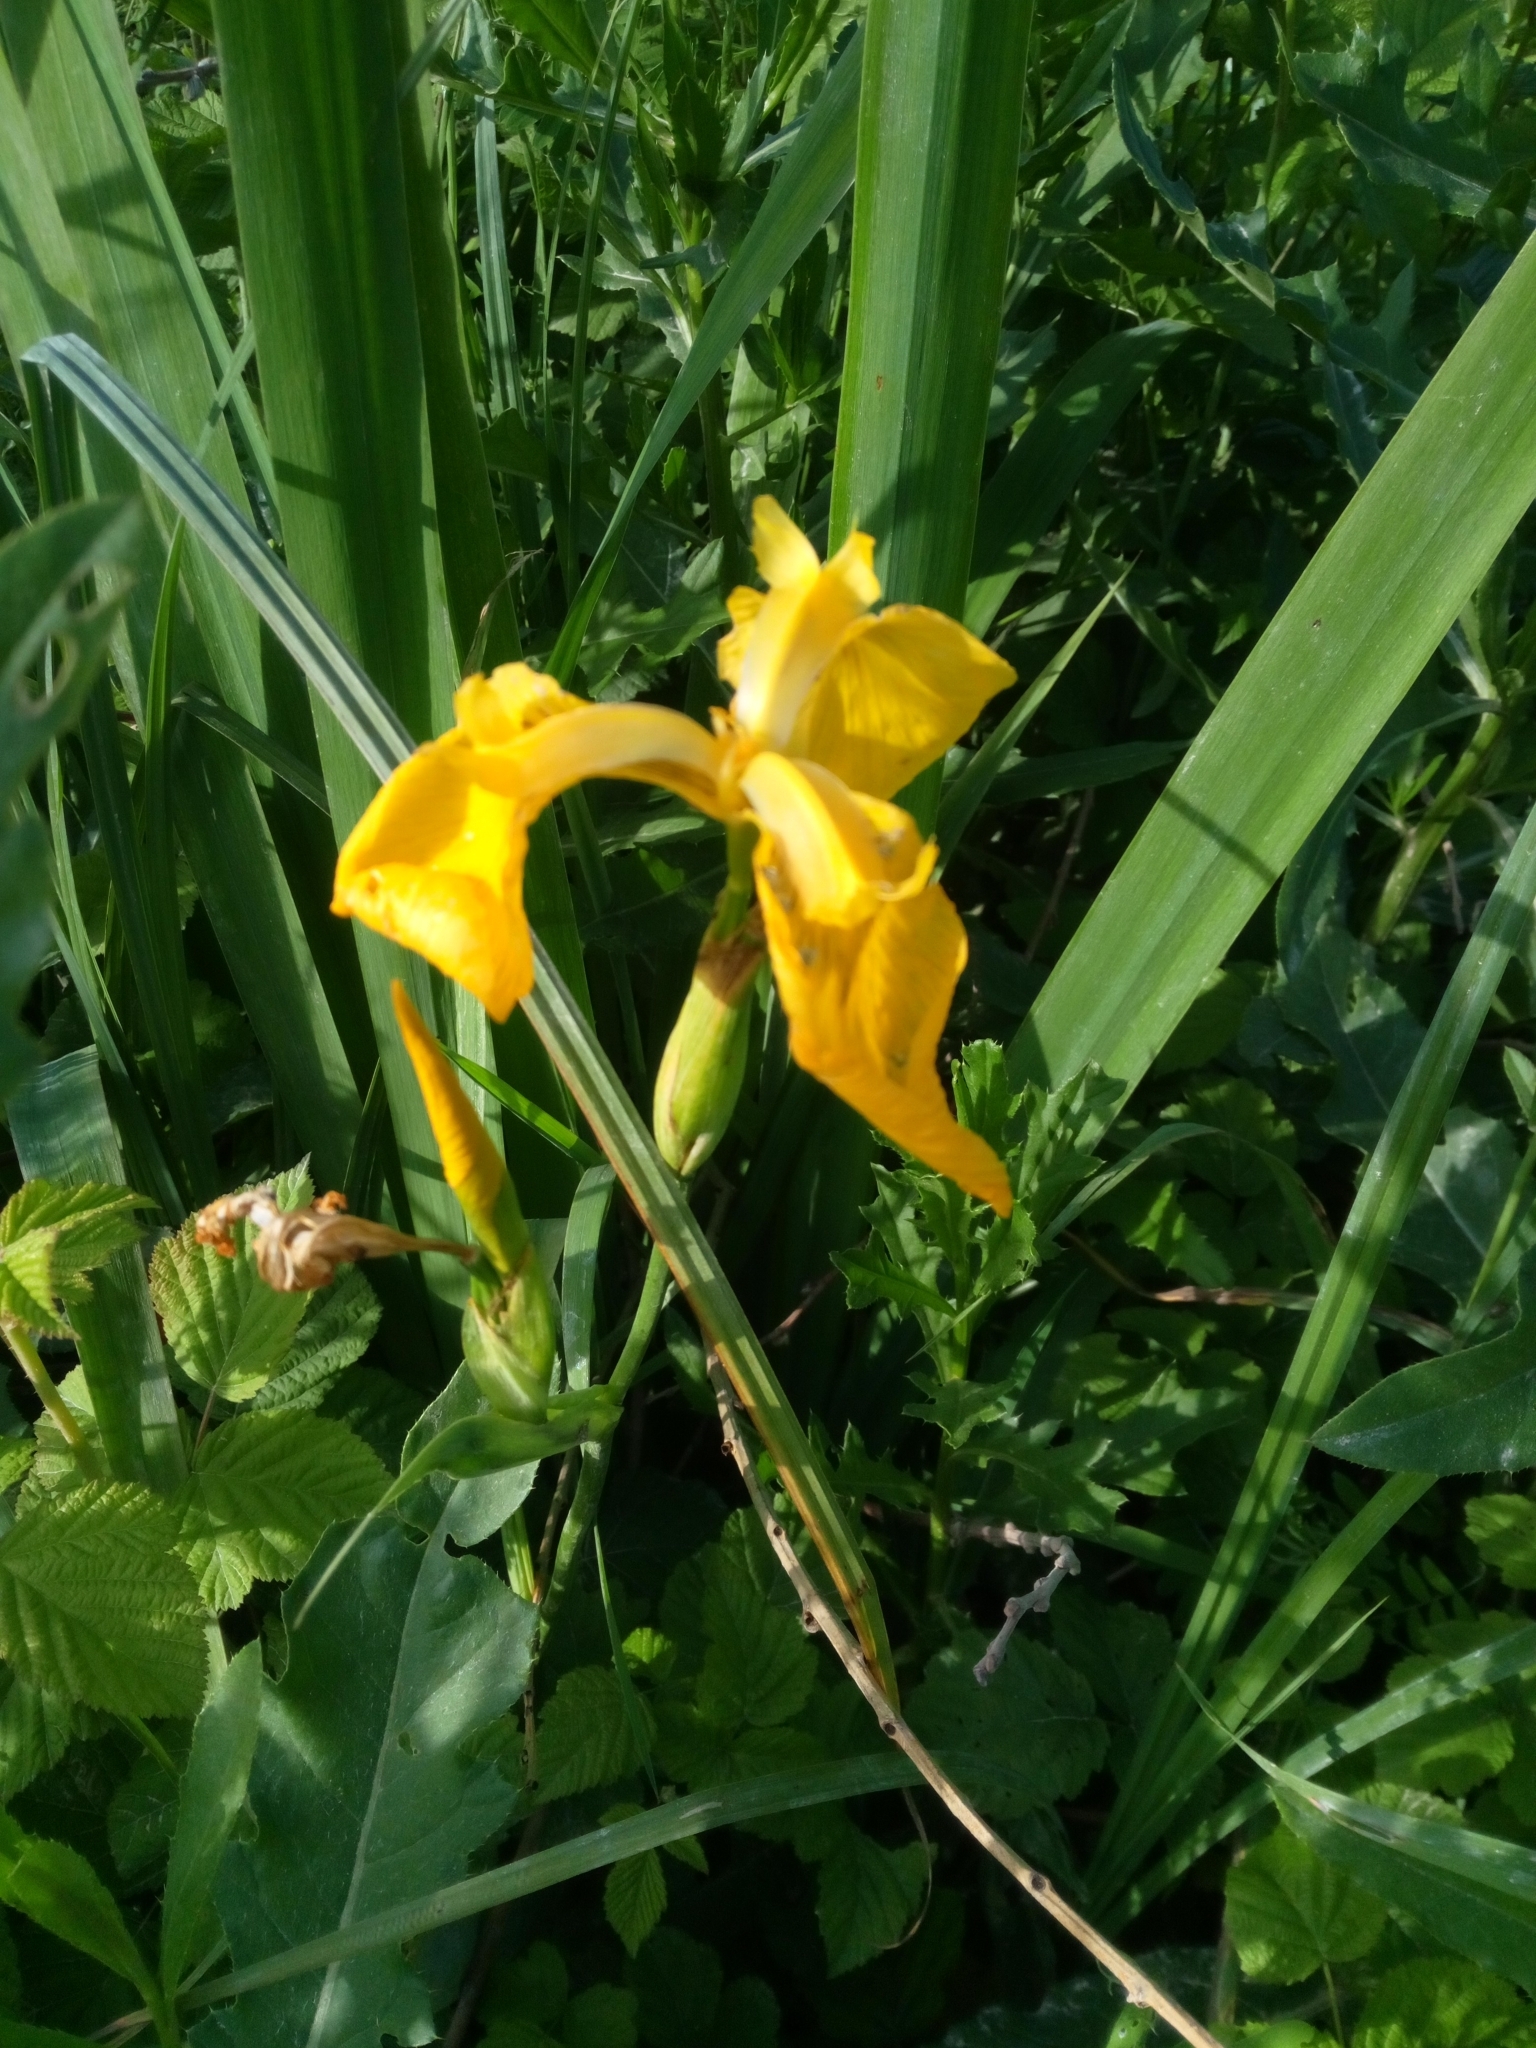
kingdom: Plantae
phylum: Tracheophyta
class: Liliopsida
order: Asparagales
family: Iridaceae
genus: Iris
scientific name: Iris pseudacorus
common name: Yellow flag
